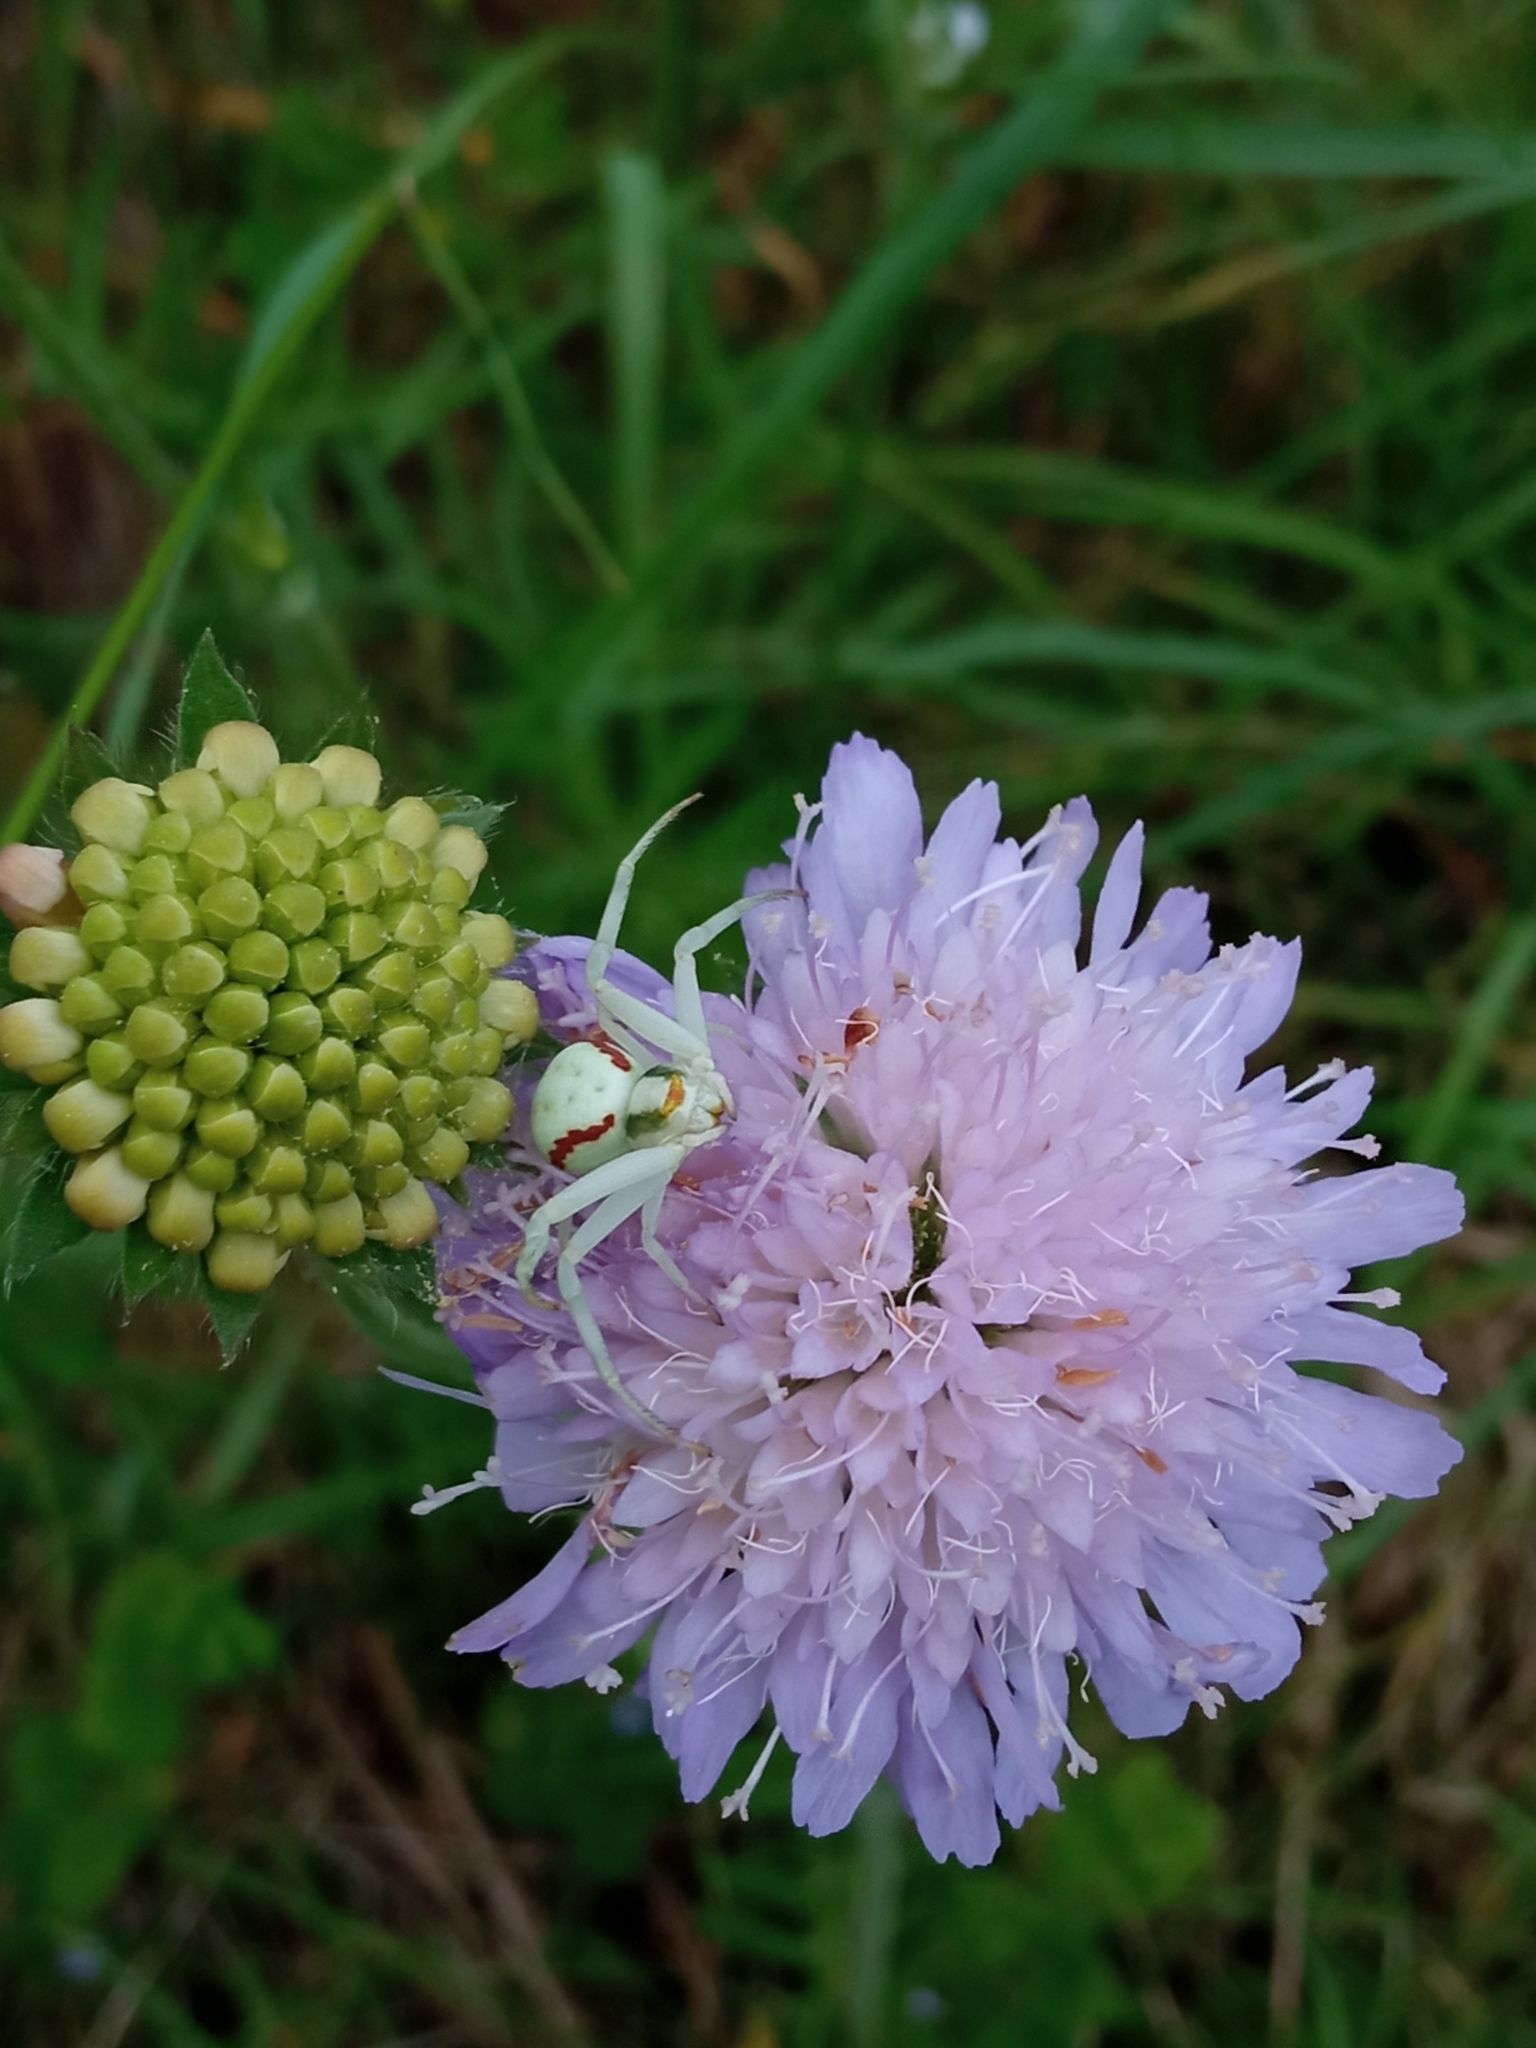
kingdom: Animalia
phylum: Arthropoda
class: Arachnida
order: Araneae
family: Thomisidae
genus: Misumena
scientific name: Misumena vatia
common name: Goldenrod crab spider
